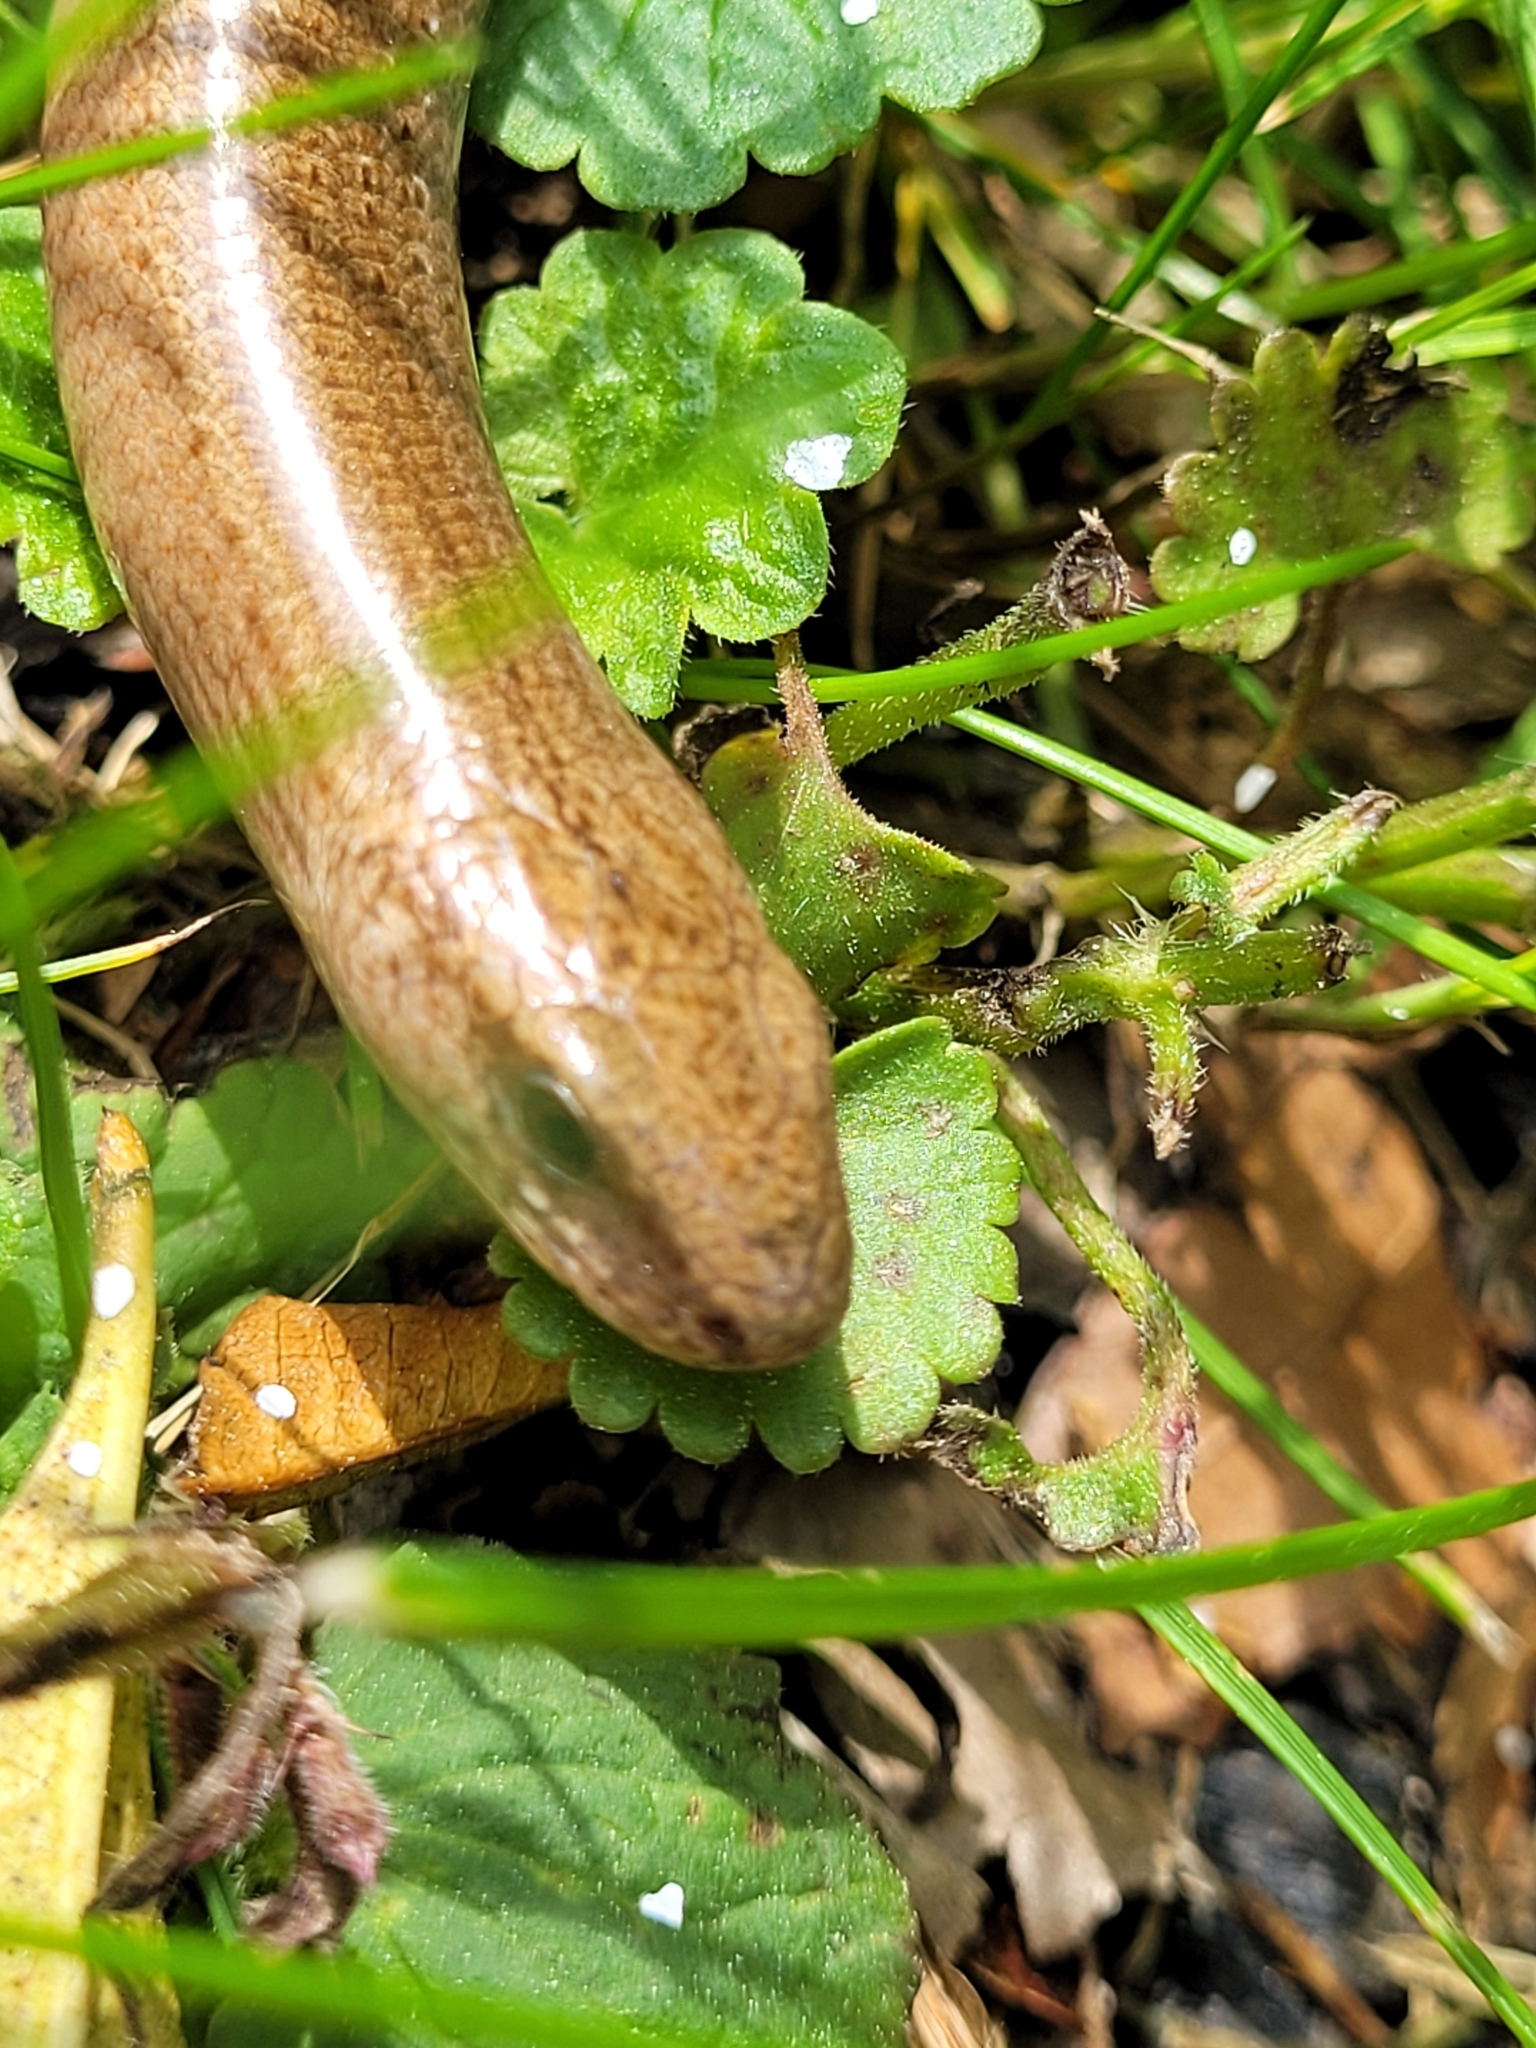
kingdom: Animalia
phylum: Chordata
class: Squamata
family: Anguidae
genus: Anguis
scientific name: Anguis fragilis
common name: Slow worm
